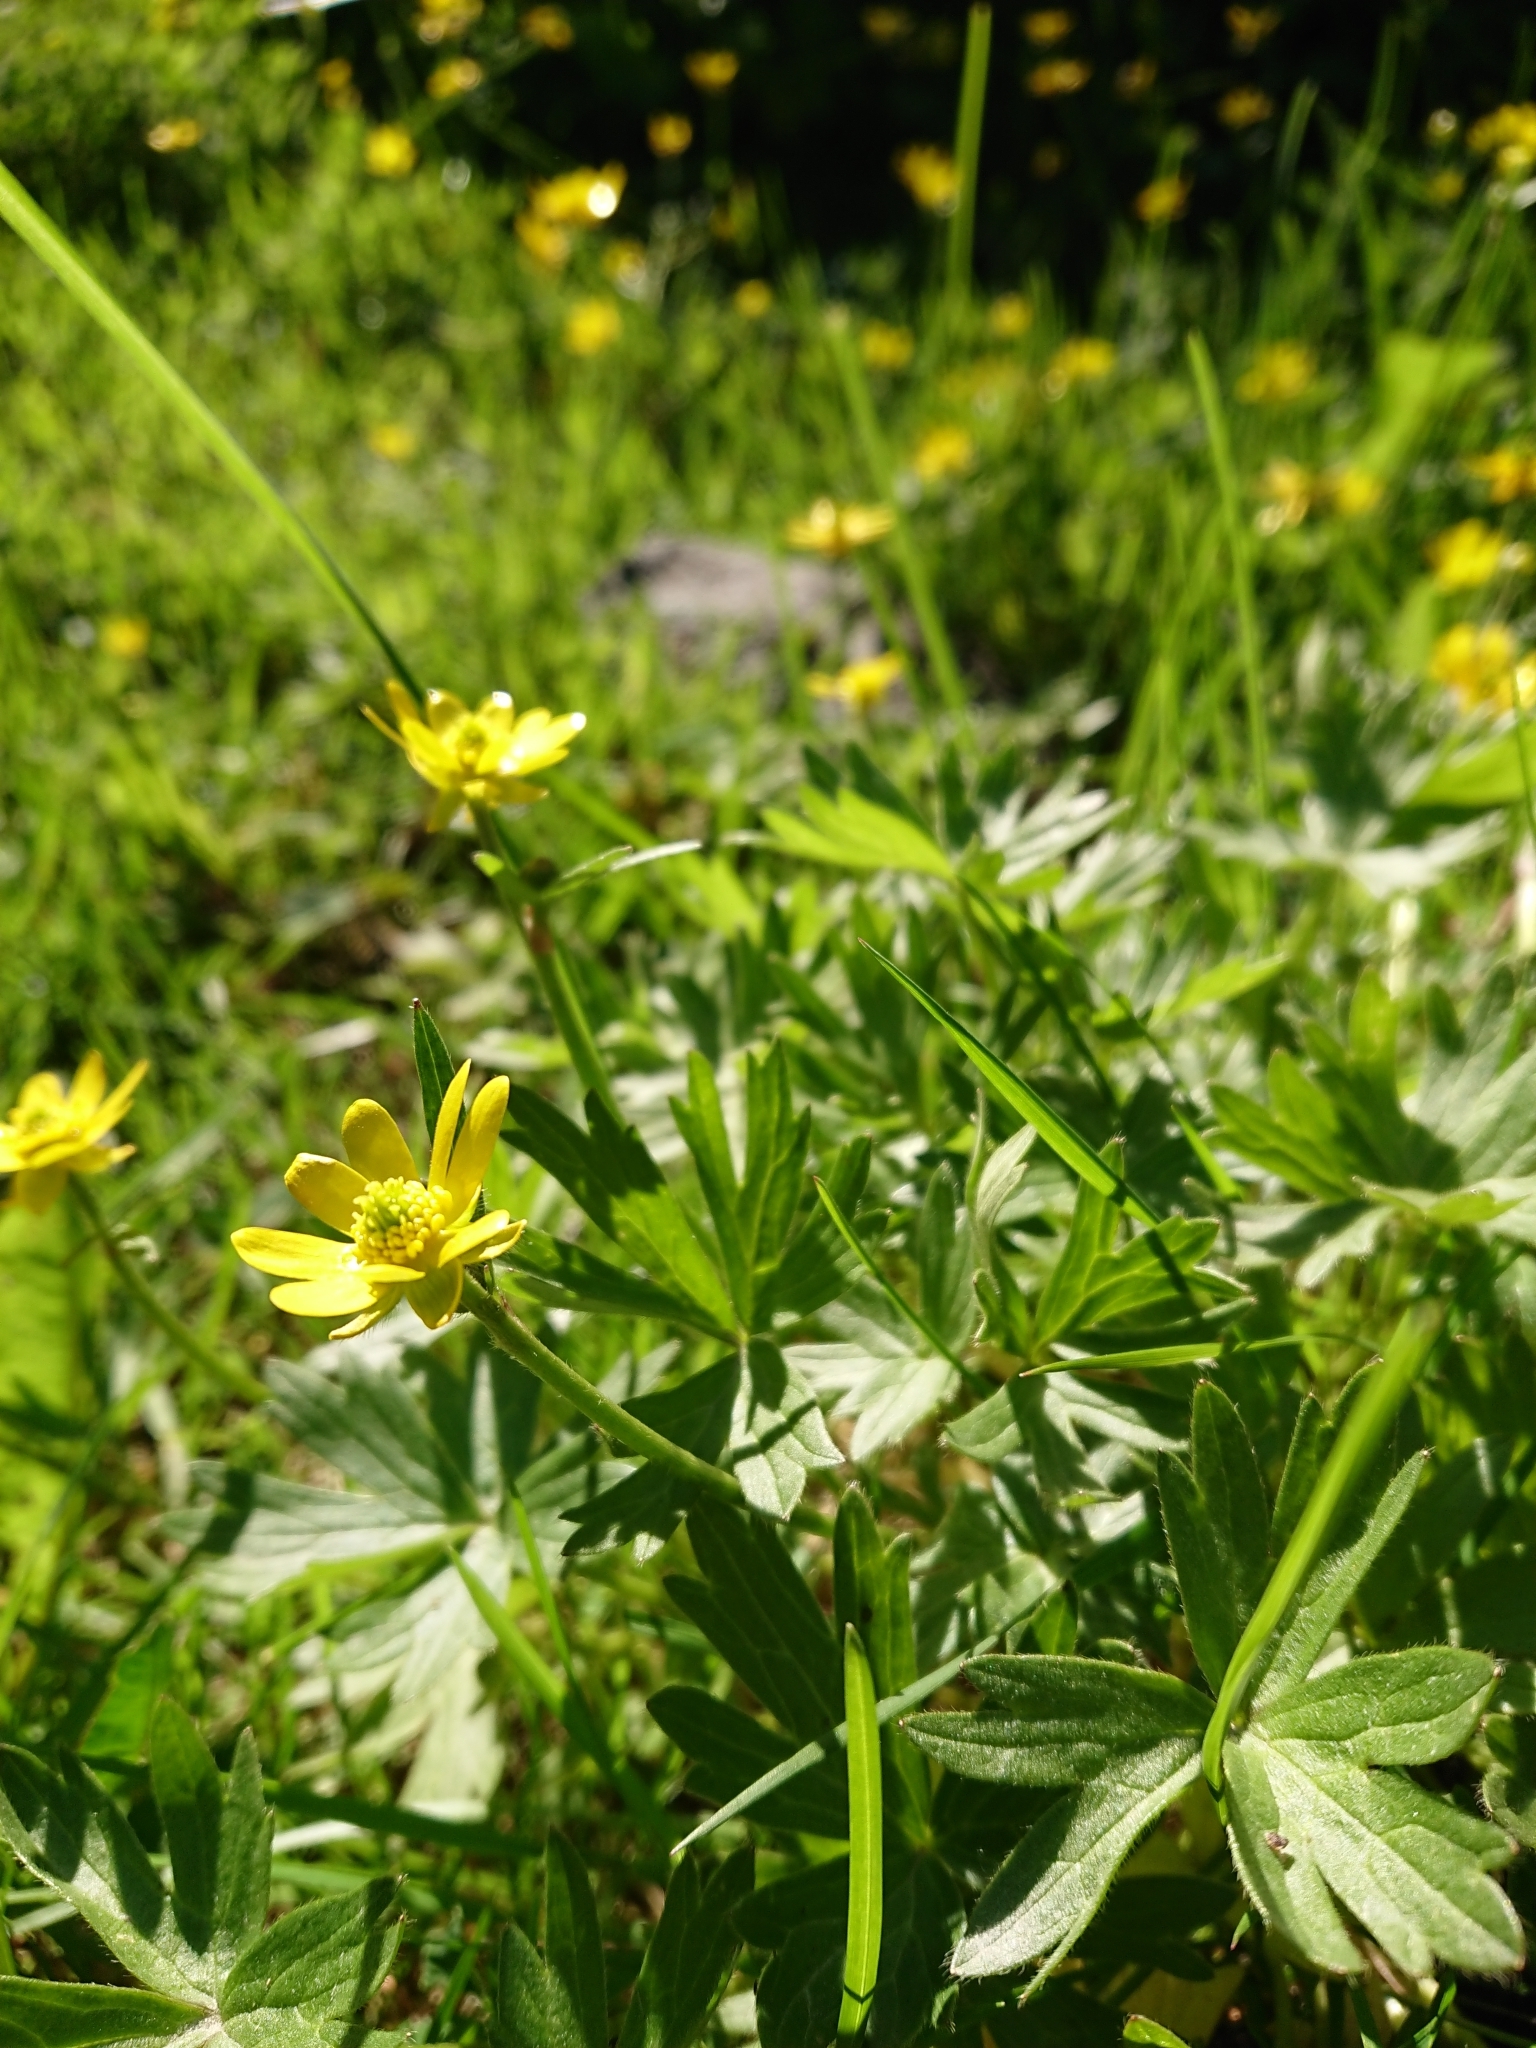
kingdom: Plantae
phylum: Tracheophyta
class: Magnoliopsida
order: Ranunculales
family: Ranunculaceae
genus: Ranunculus
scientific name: Ranunculus peduncularis
